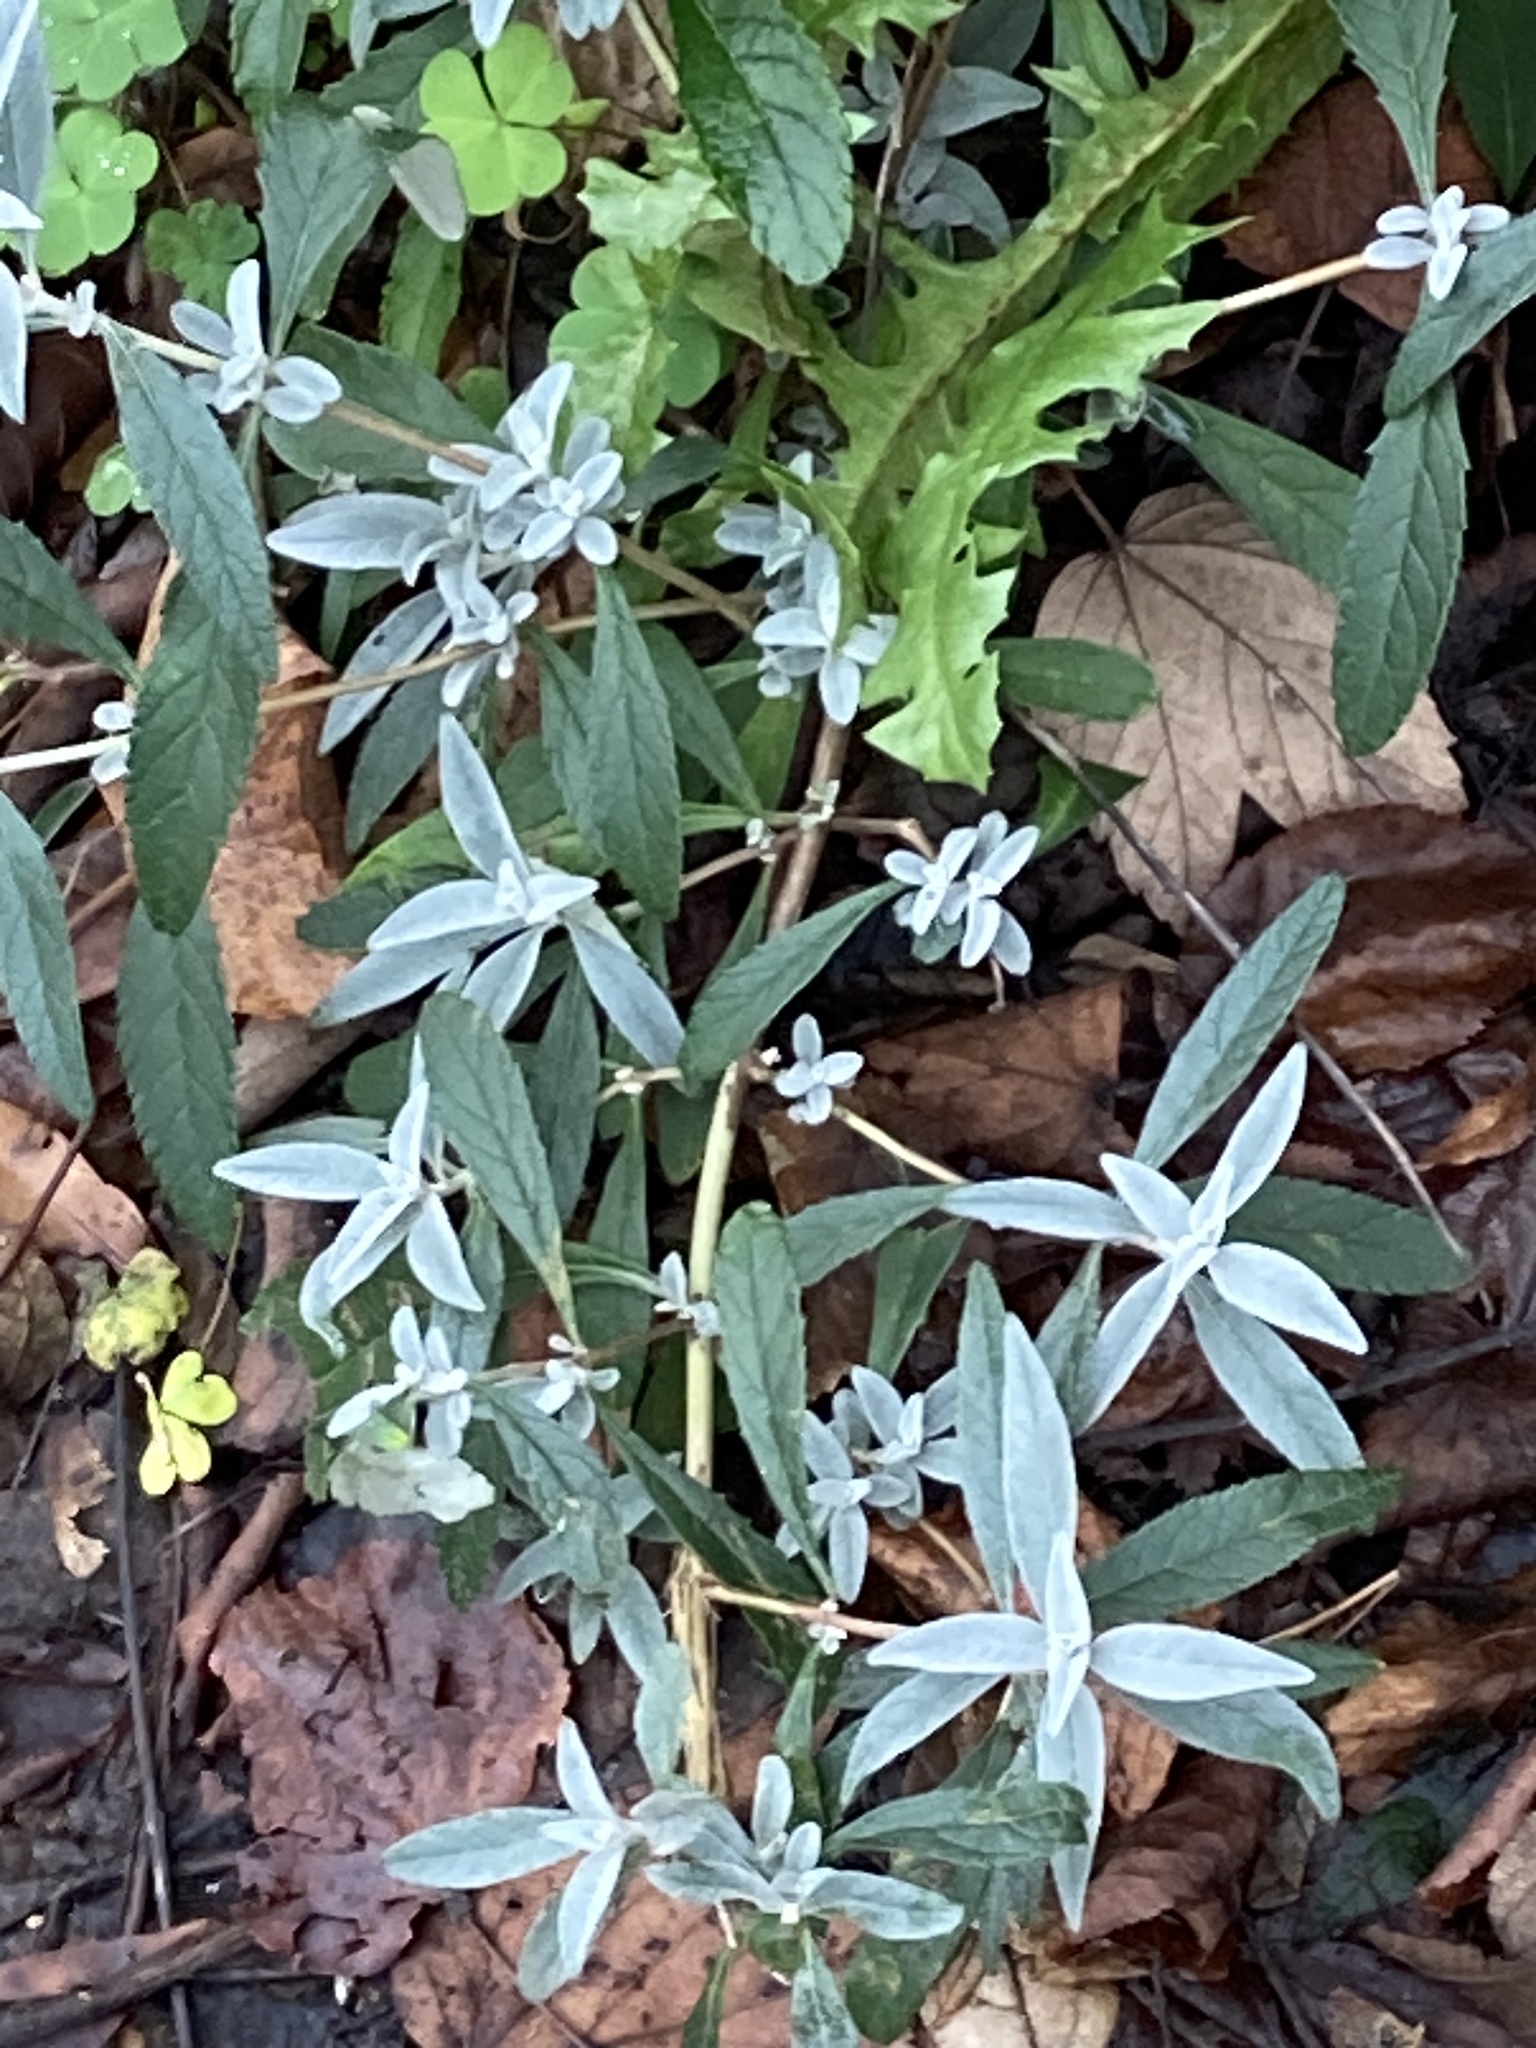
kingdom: Plantae
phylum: Tracheophyta
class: Magnoliopsida
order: Lamiales
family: Scrophulariaceae
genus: Buddleja
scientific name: Buddleja davidii
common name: Butterfly-bush
